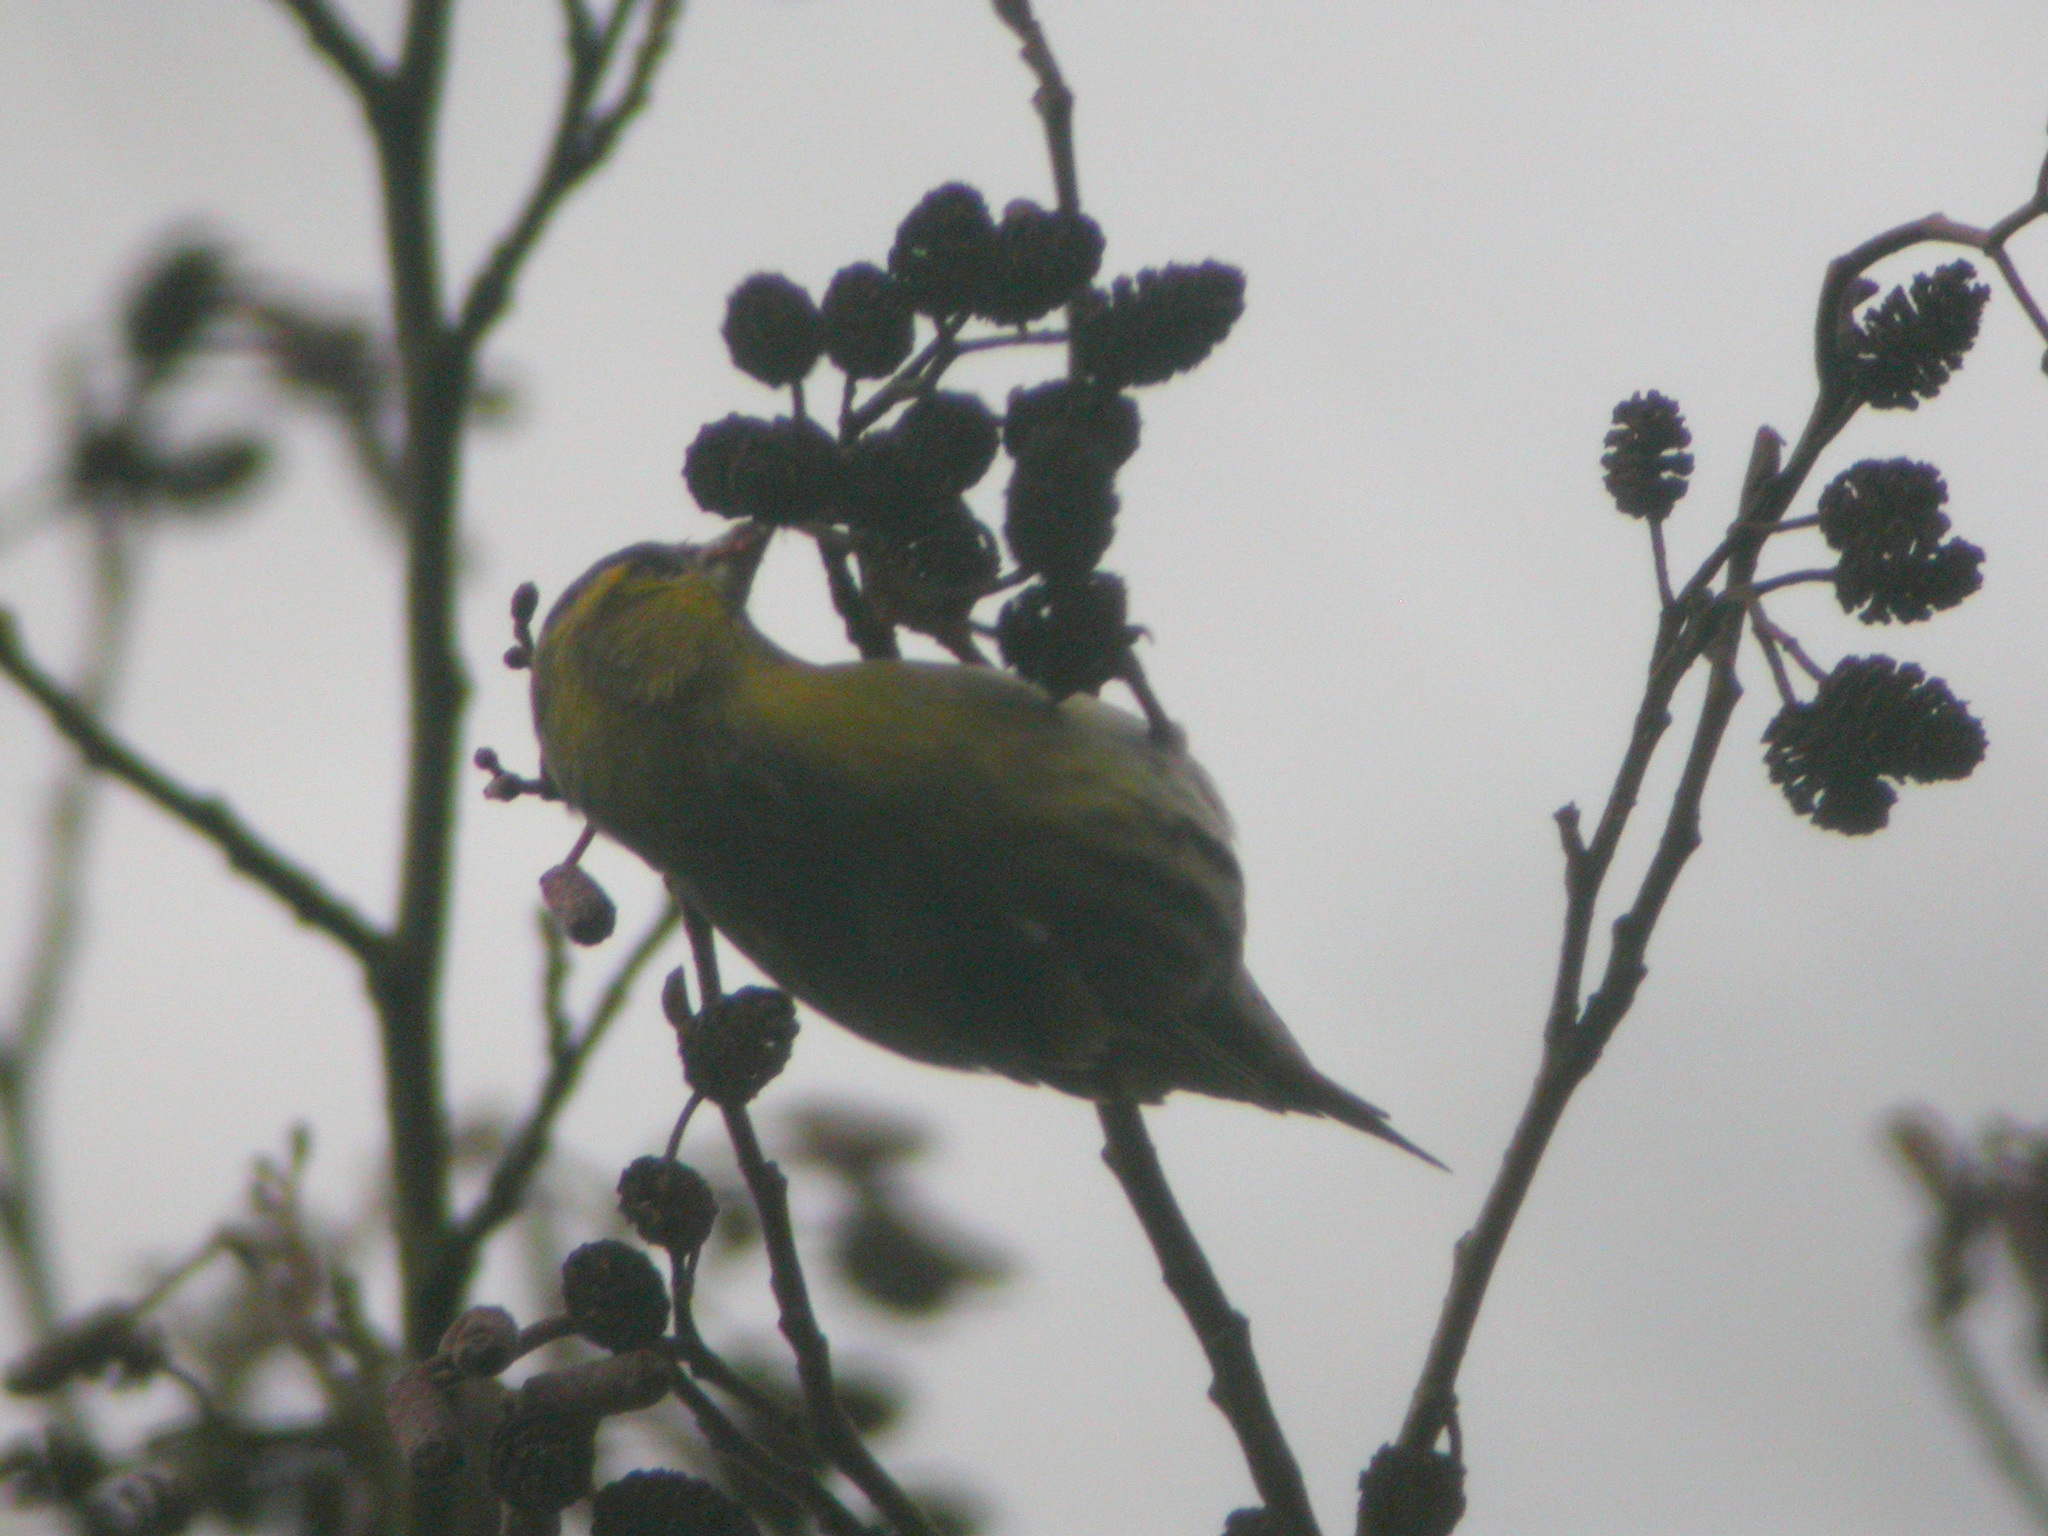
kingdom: Animalia
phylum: Chordata
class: Aves
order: Passeriformes
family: Fringillidae
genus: Spinus
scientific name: Spinus spinus
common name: Eurasian siskin
